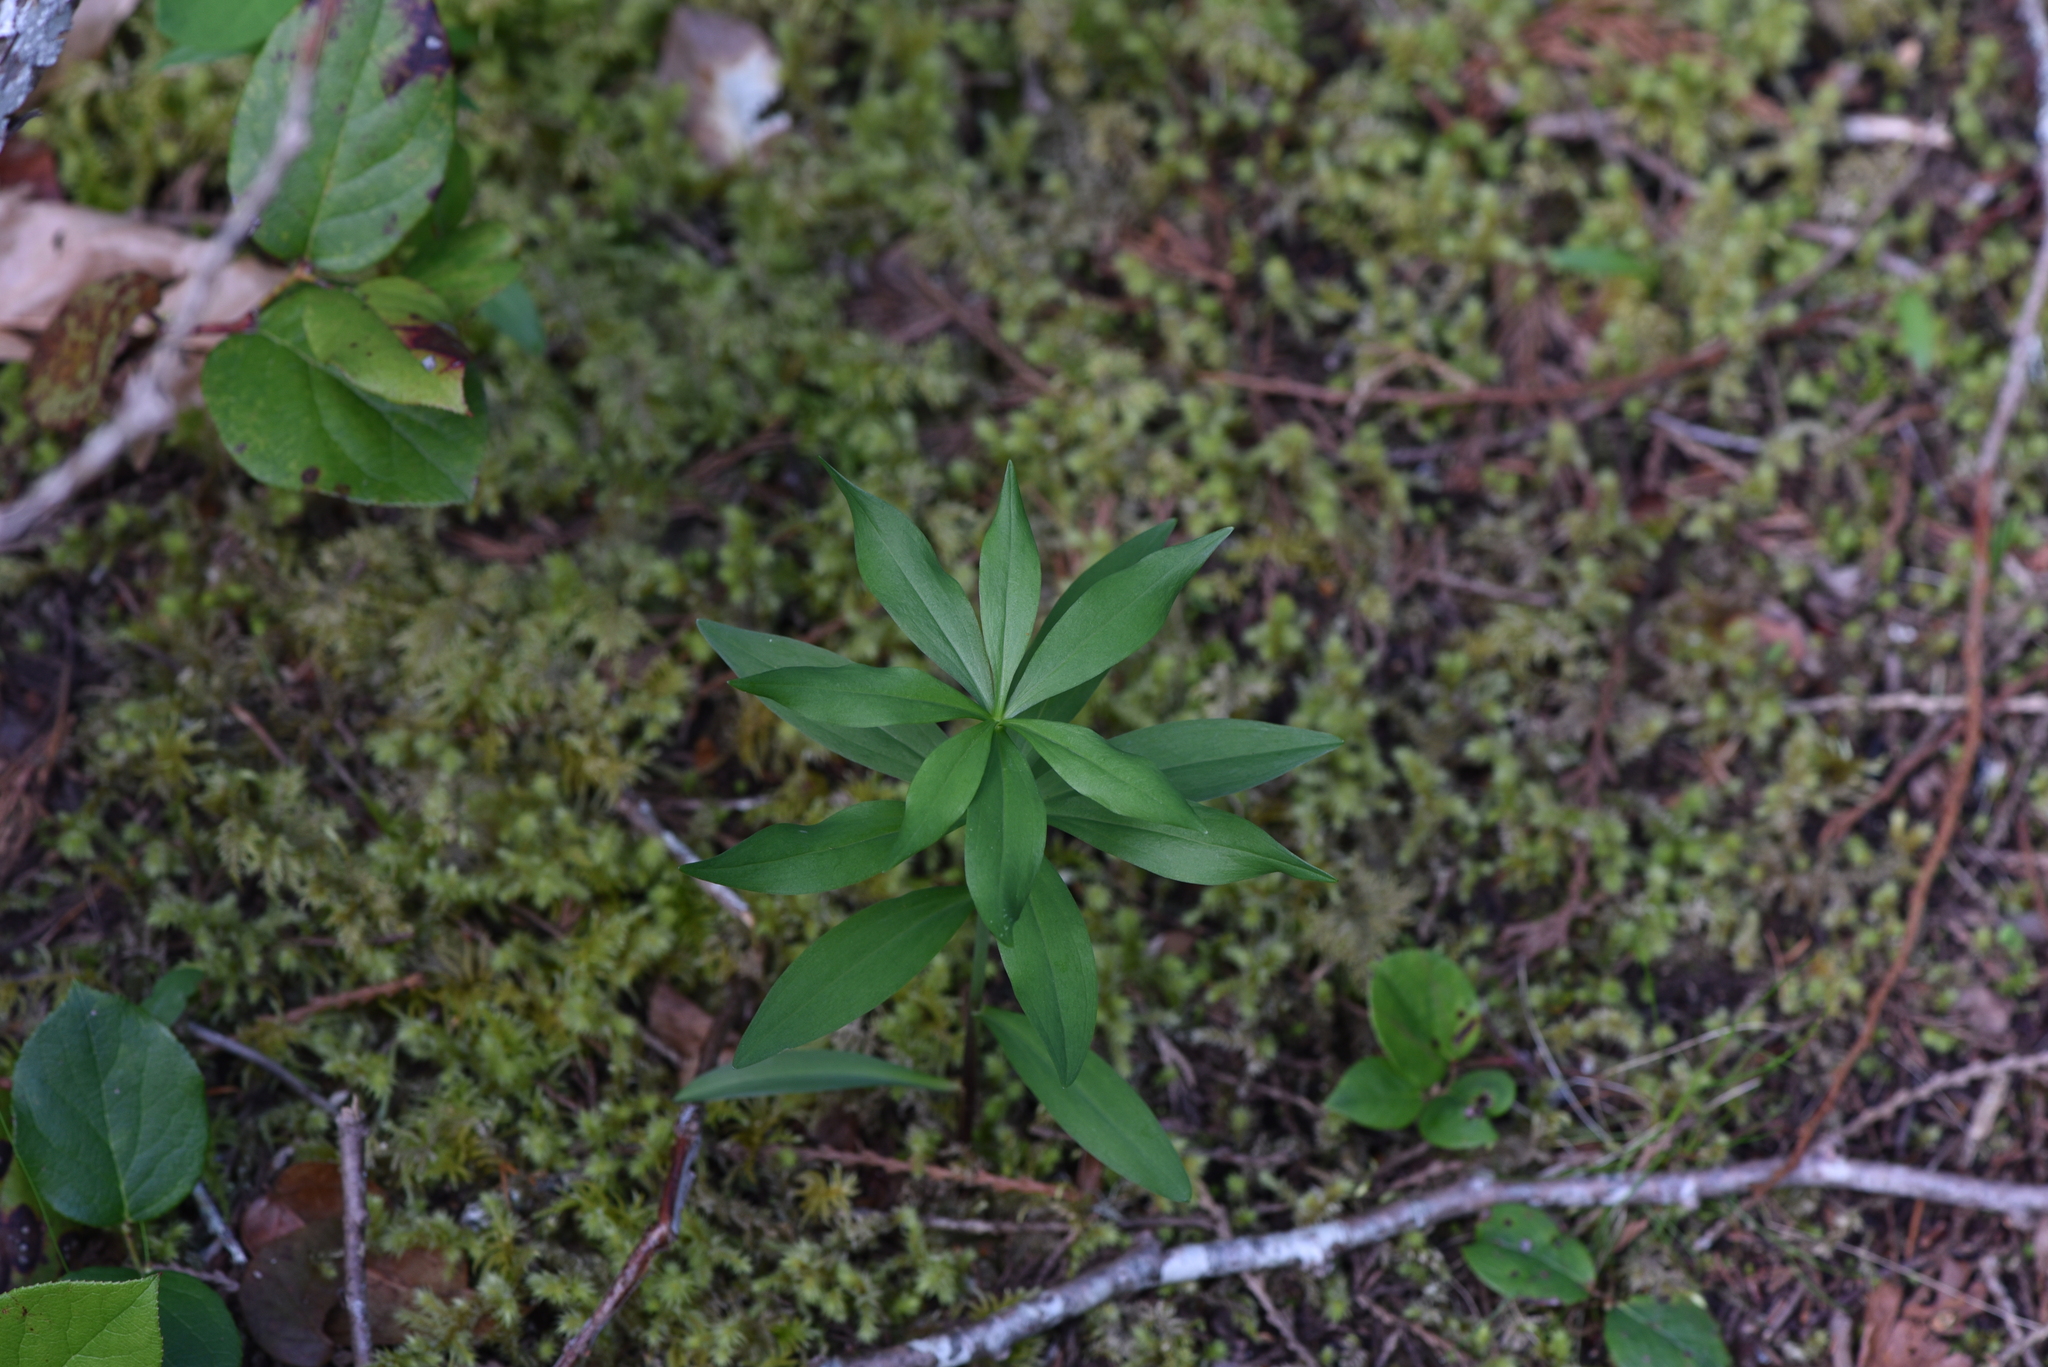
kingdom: Plantae
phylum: Tracheophyta
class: Liliopsida
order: Liliales
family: Liliaceae
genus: Lilium
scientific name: Lilium columbianum
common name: Columbia lily
